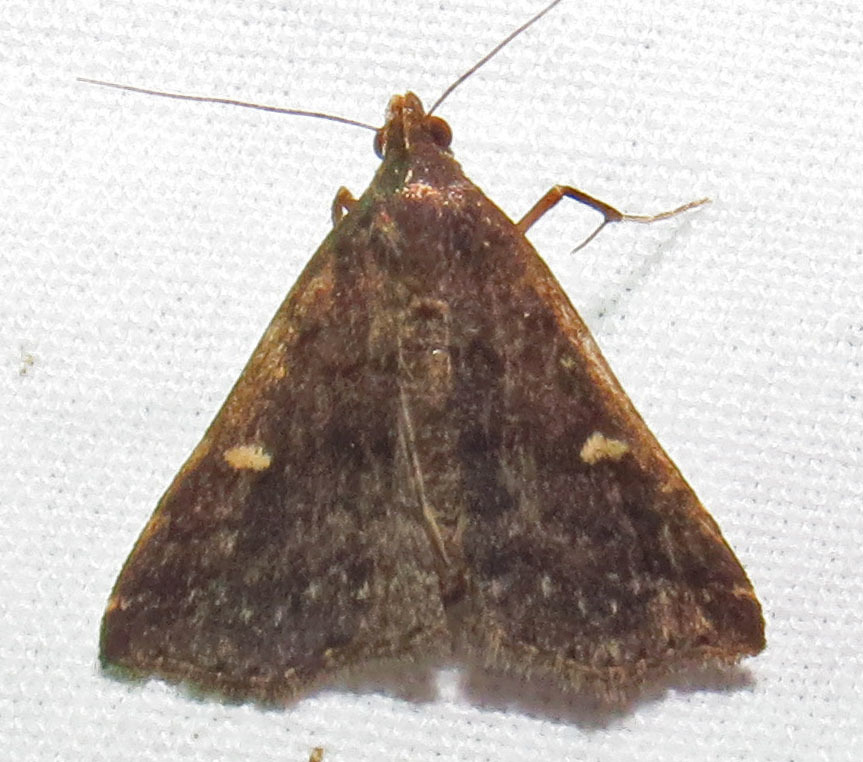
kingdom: Animalia
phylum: Arthropoda
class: Insecta
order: Lepidoptera
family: Erebidae
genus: Tetanolita
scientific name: Tetanolita mynesalis
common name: Smoky tetanolita moth
